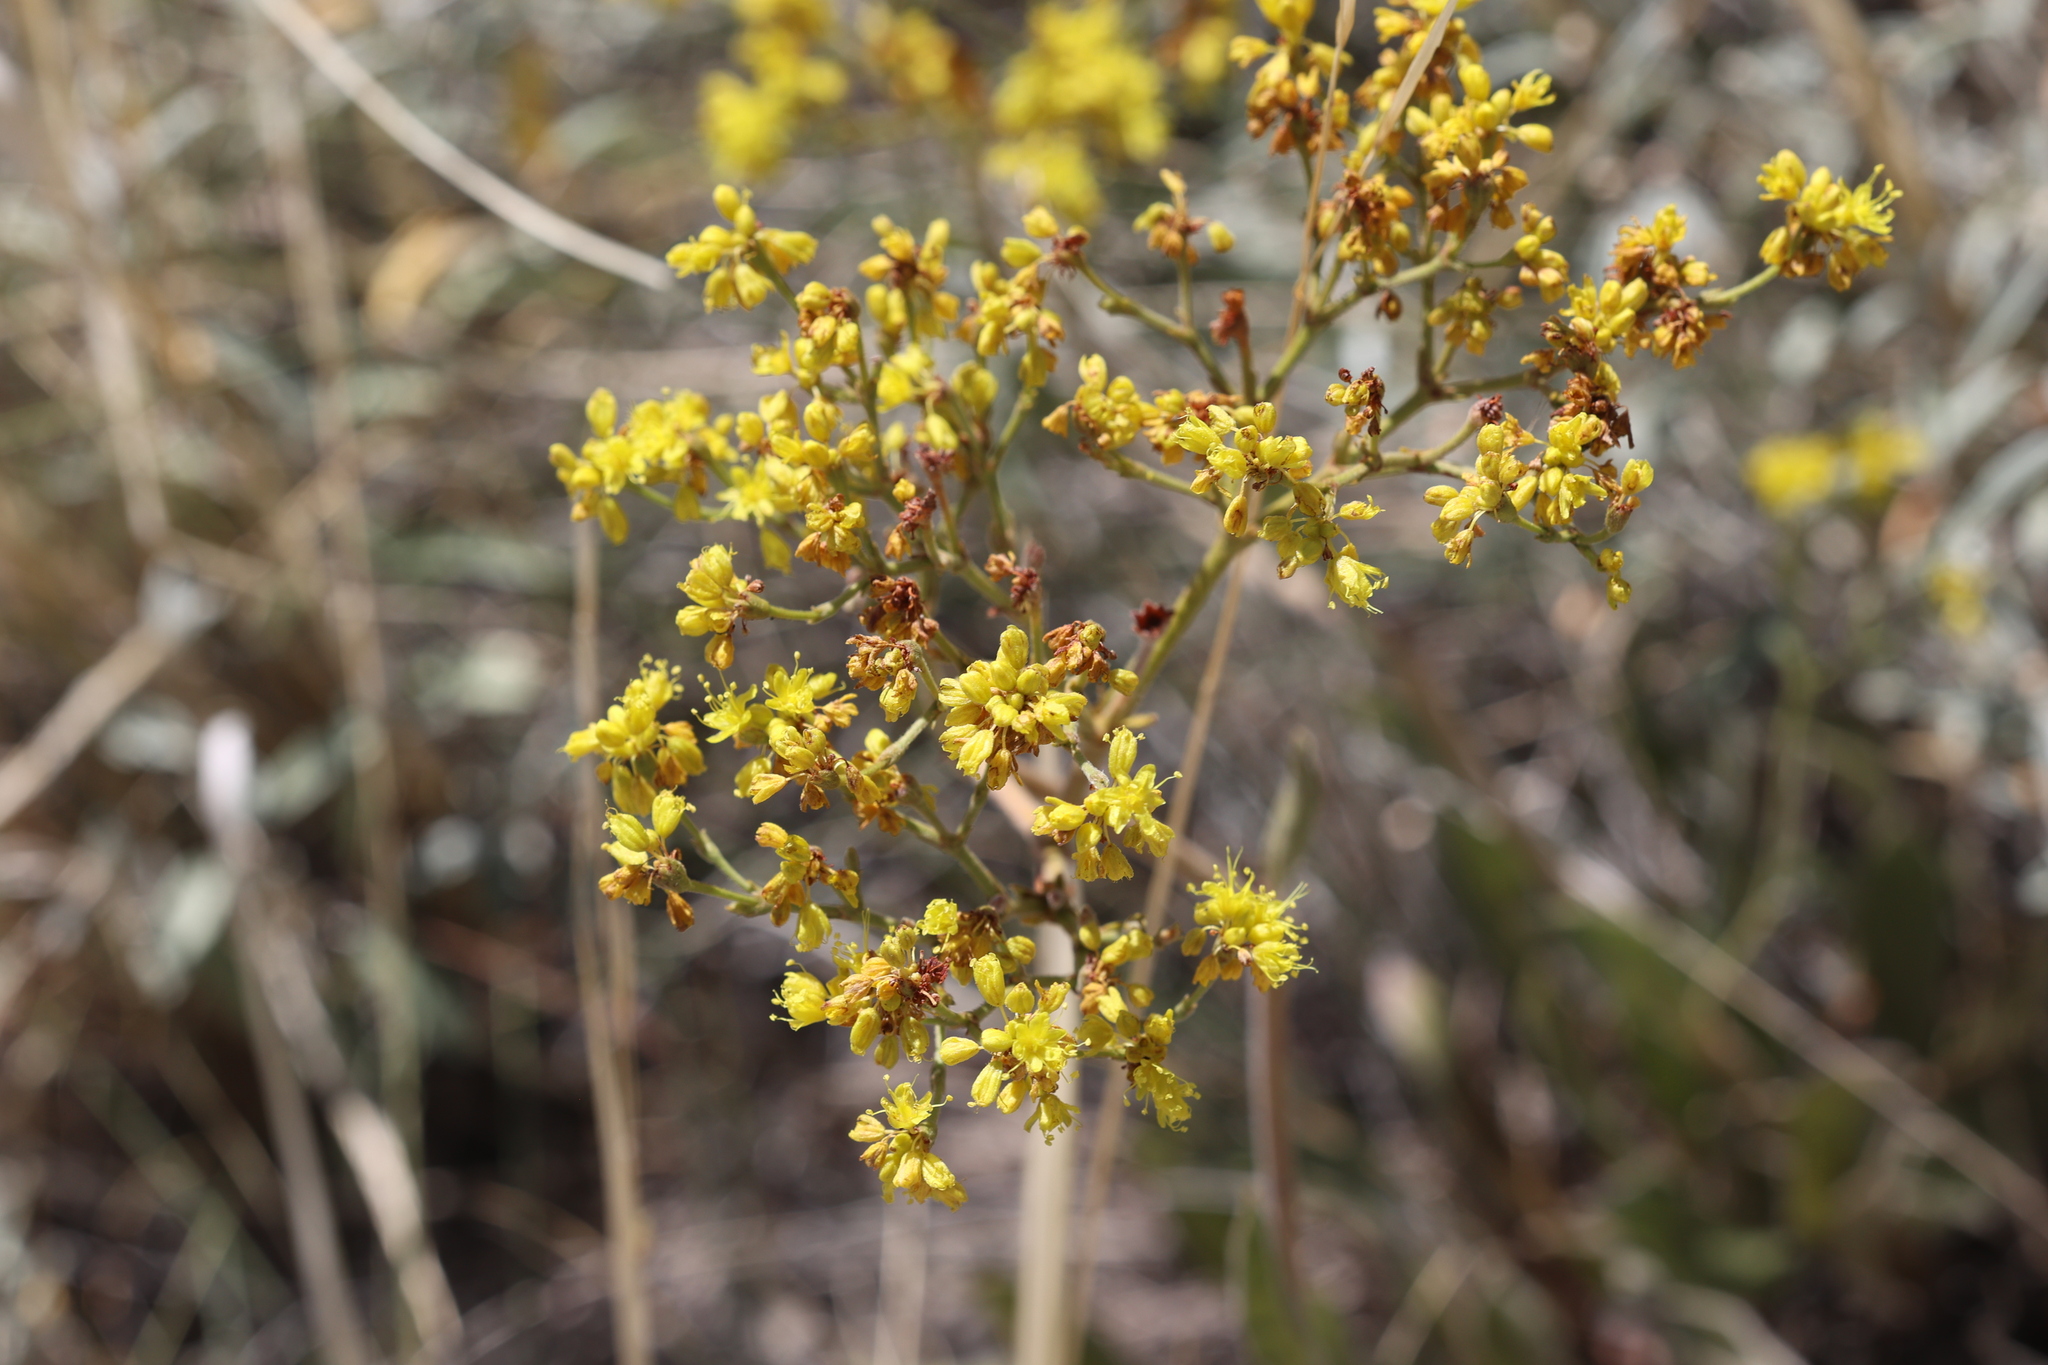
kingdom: Plantae
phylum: Tracheophyta
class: Magnoliopsida
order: Caryophyllales
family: Polygonaceae
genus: Eriogonum
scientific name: Eriogonum hieraciifolium
